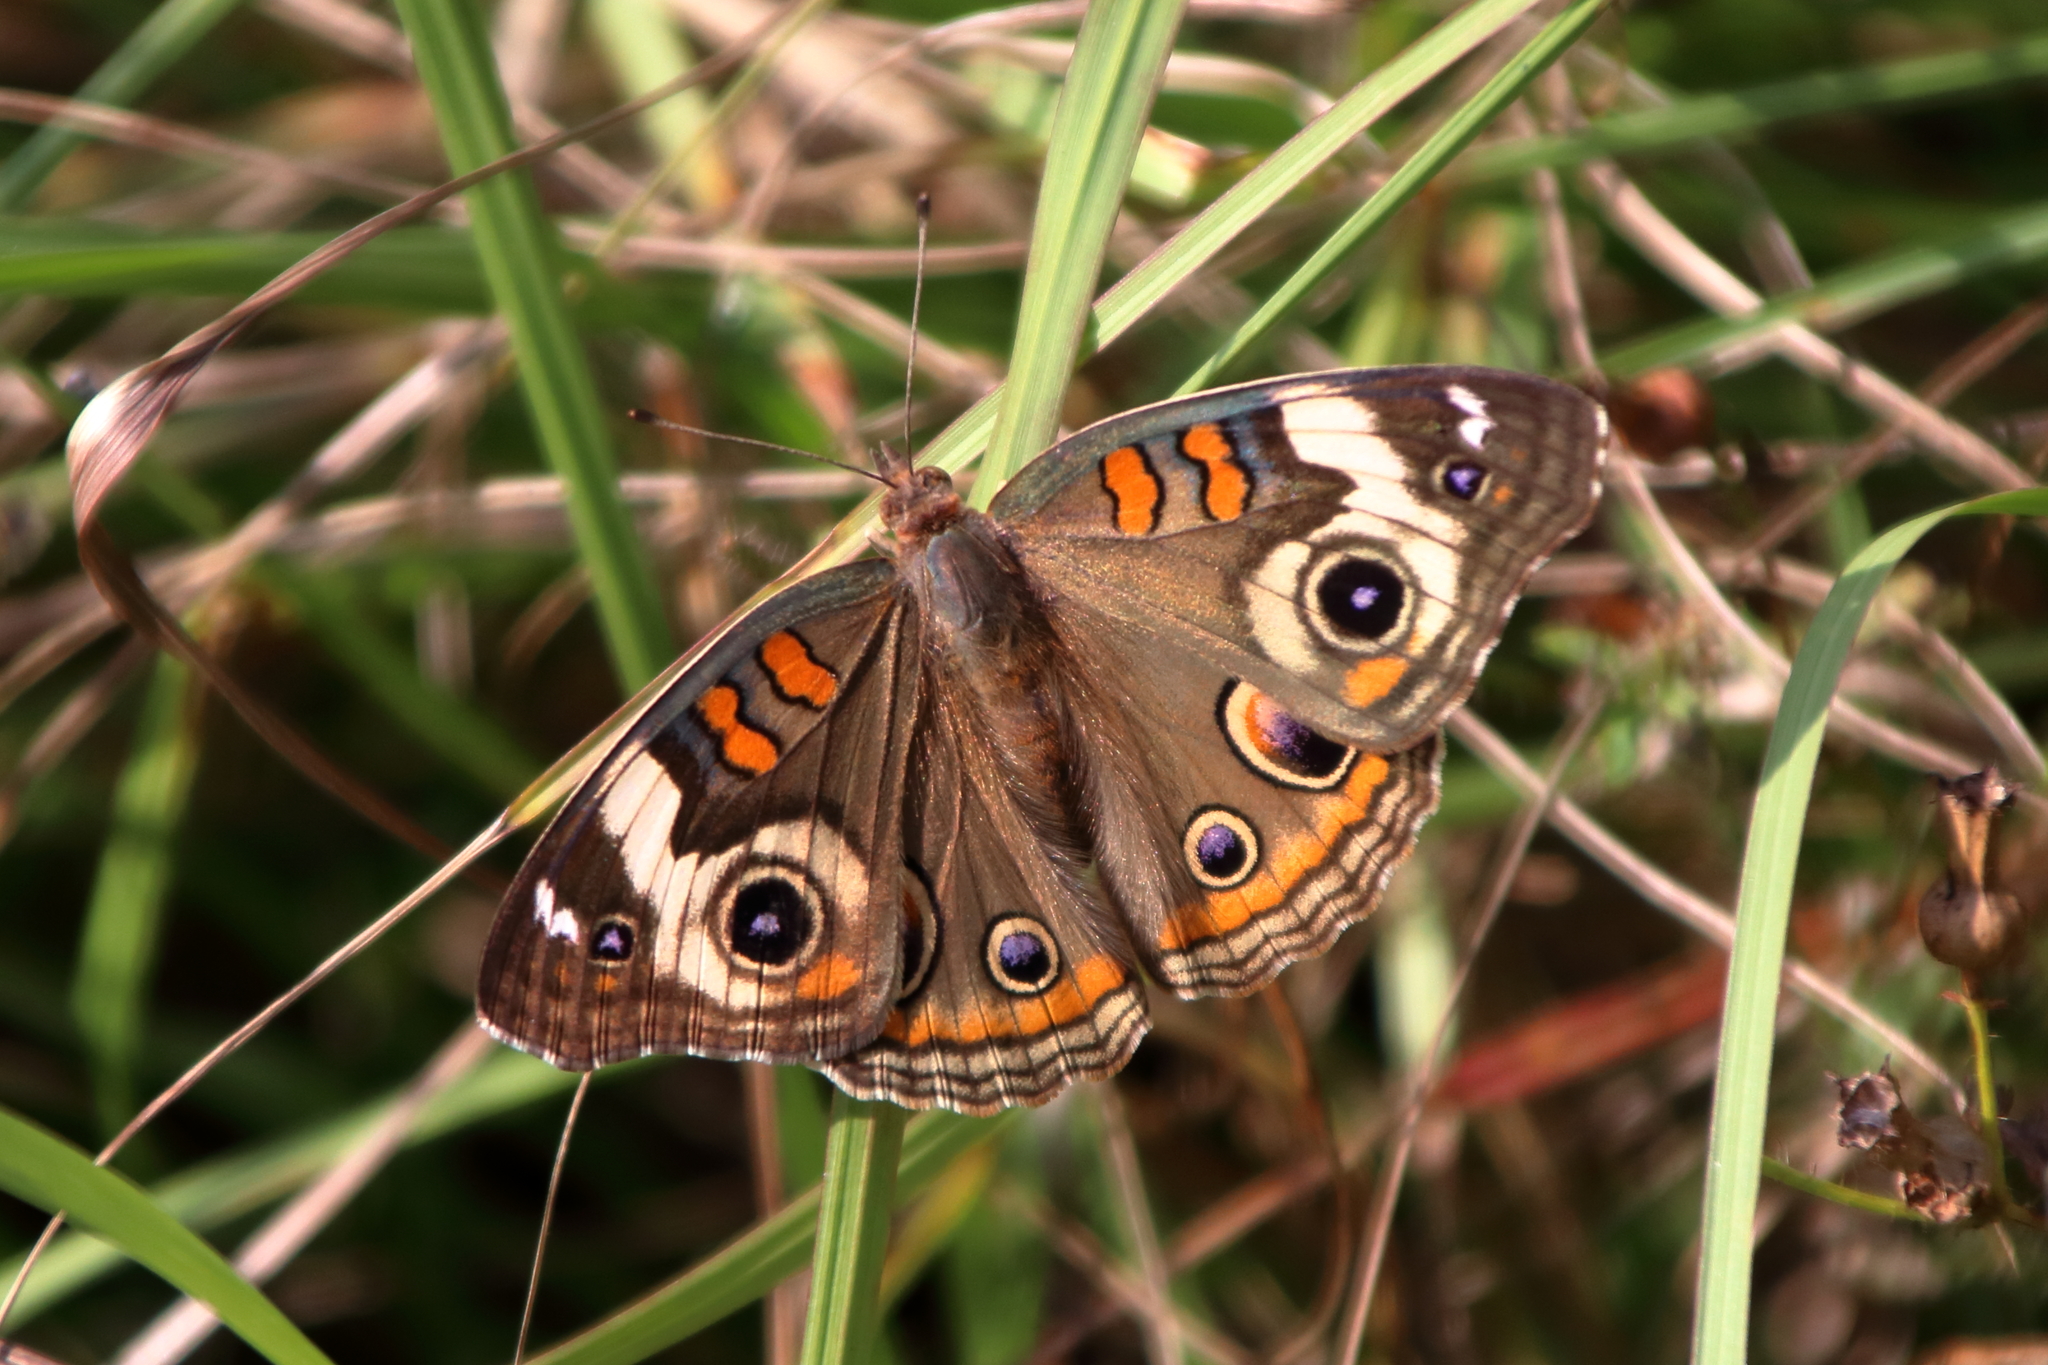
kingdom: Animalia
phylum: Arthropoda
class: Insecta
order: Lepidoptera
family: Nymphalidae
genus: Junonia
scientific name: Junonia coenia
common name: Common buckeye
